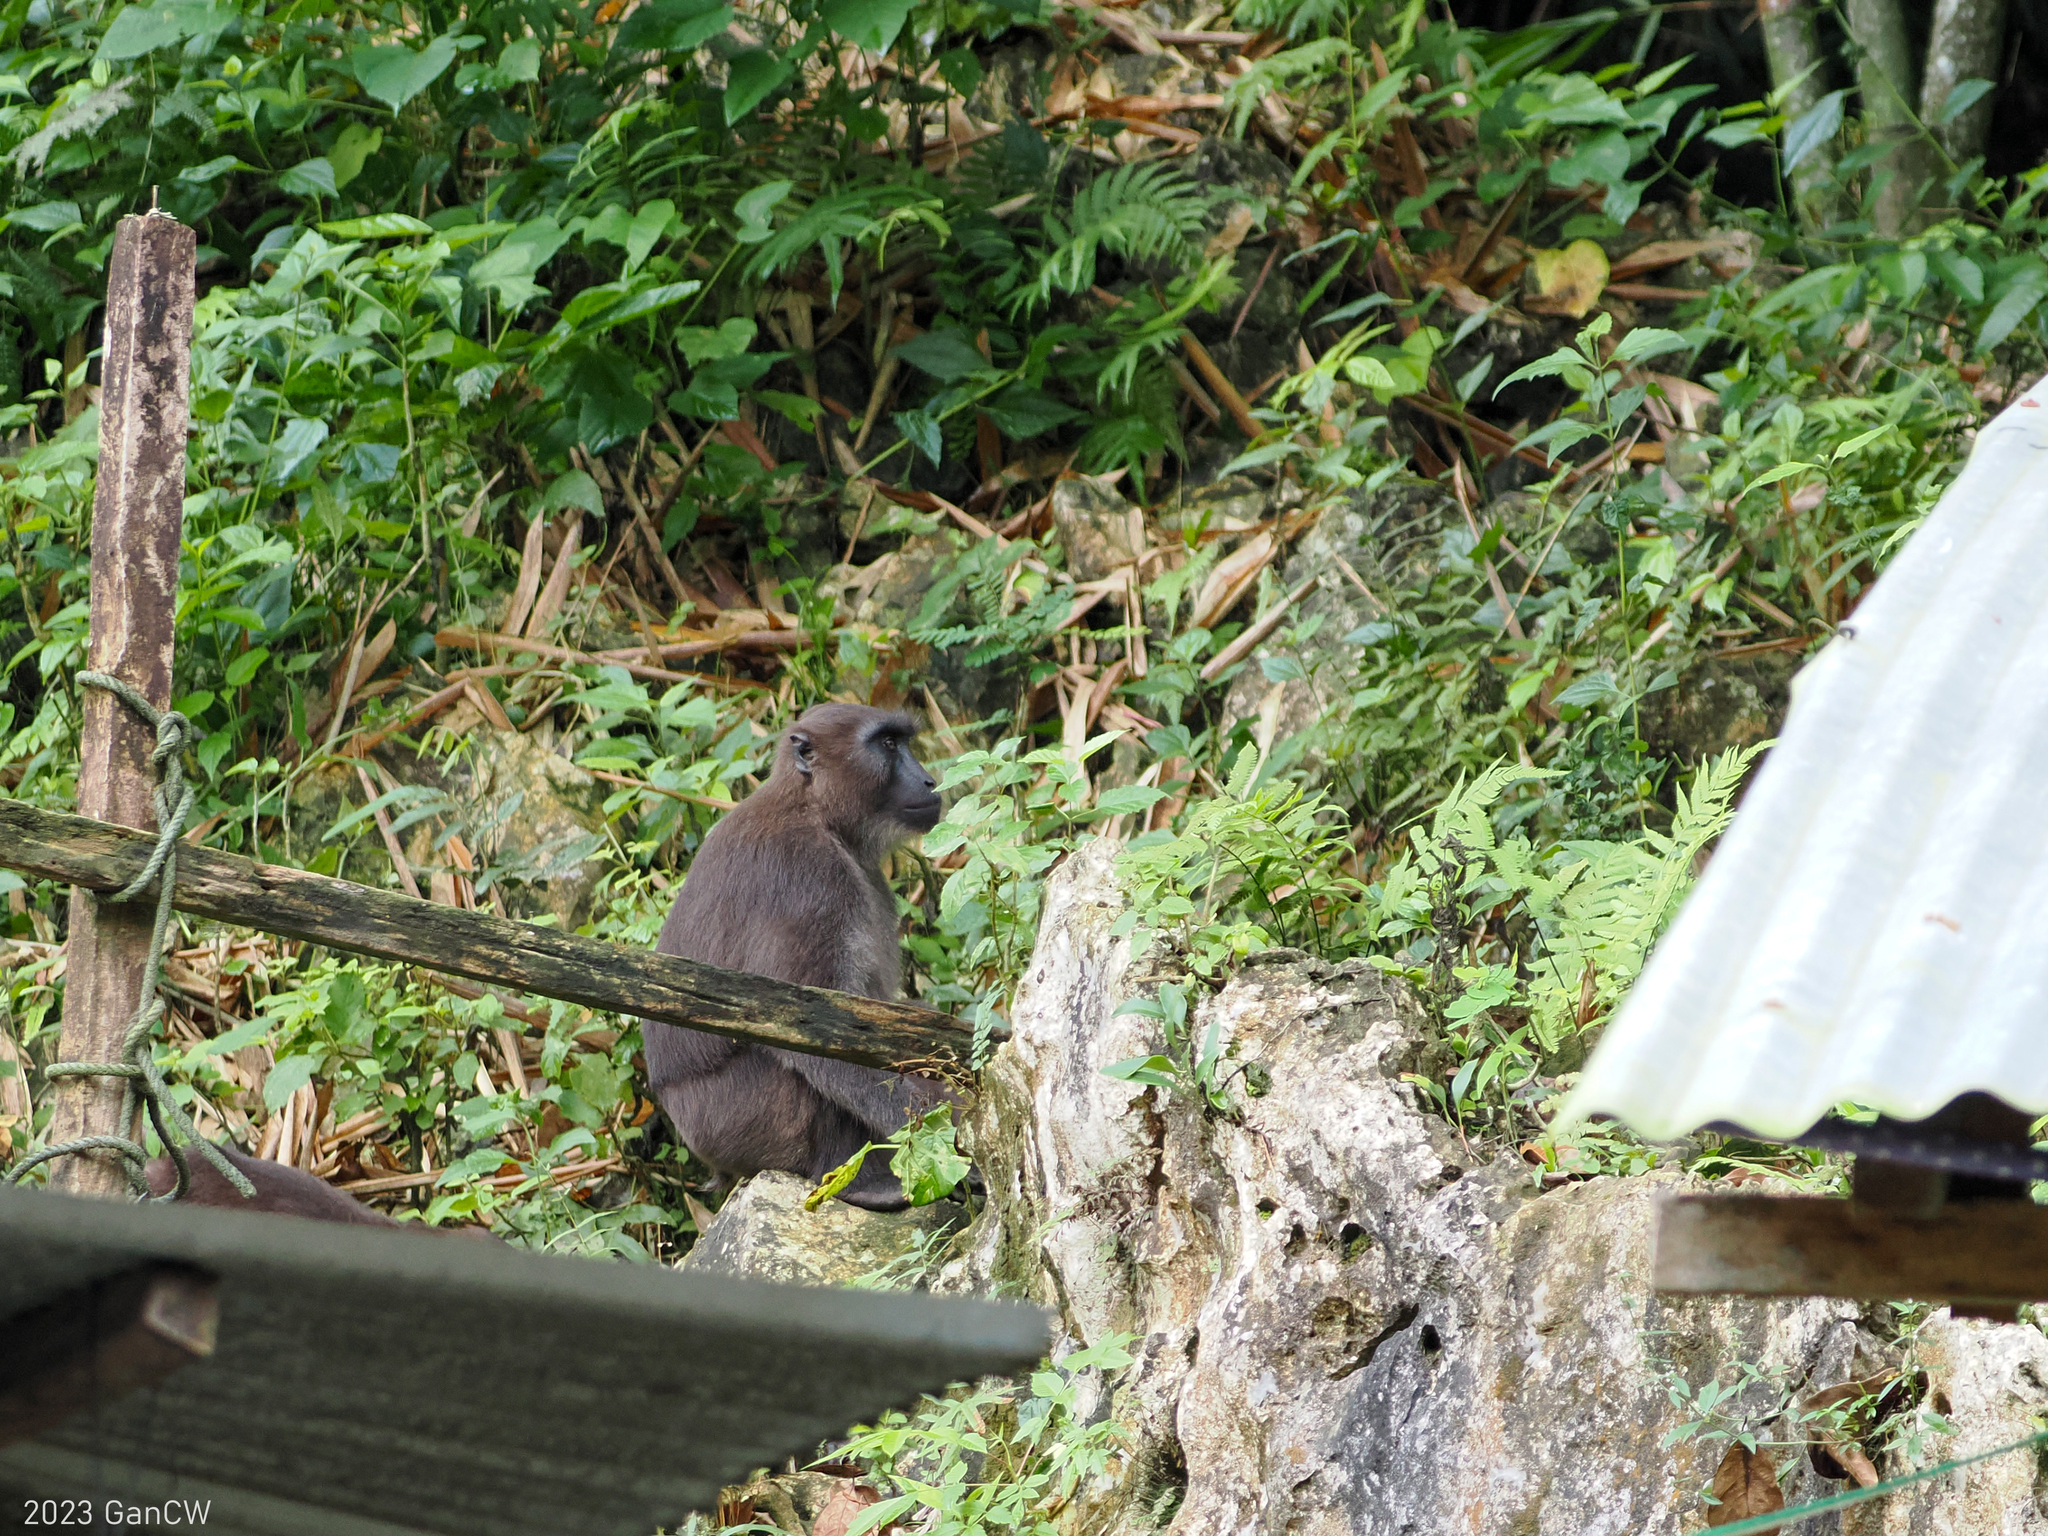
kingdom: Animalia
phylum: Chordata
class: Mammalia
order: Primates
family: Cercopithecidae
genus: Macaca
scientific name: Macaca maura
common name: Moor macaque
